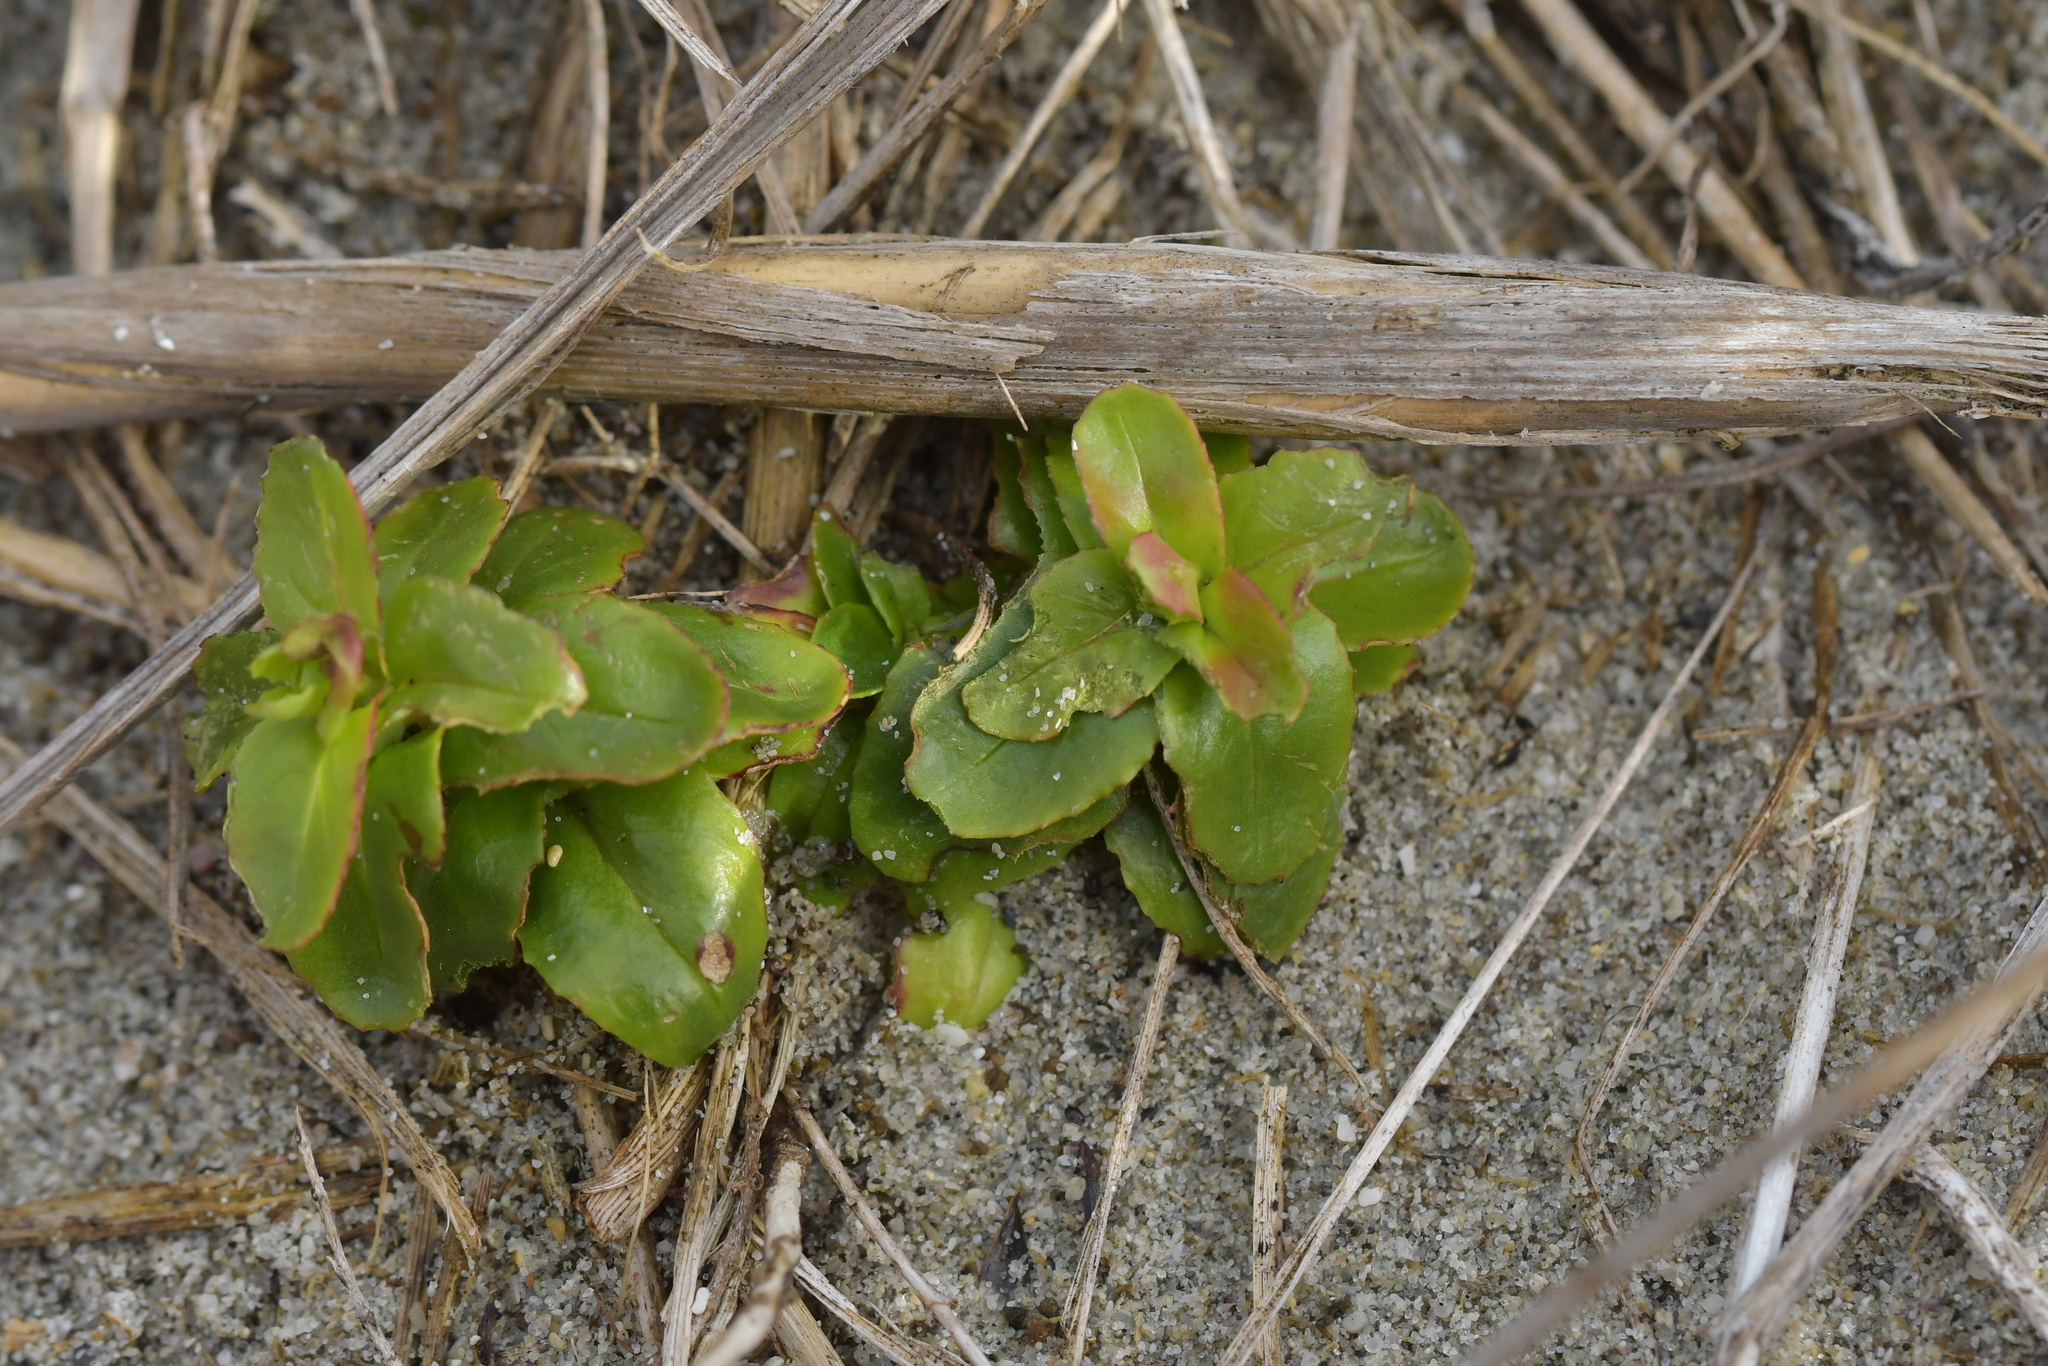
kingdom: Plantae
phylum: Tracheophyta
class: Magnoliopsida
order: Myrtales
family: Onagraceae
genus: Epilobium
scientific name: Epilobium billardierianum
